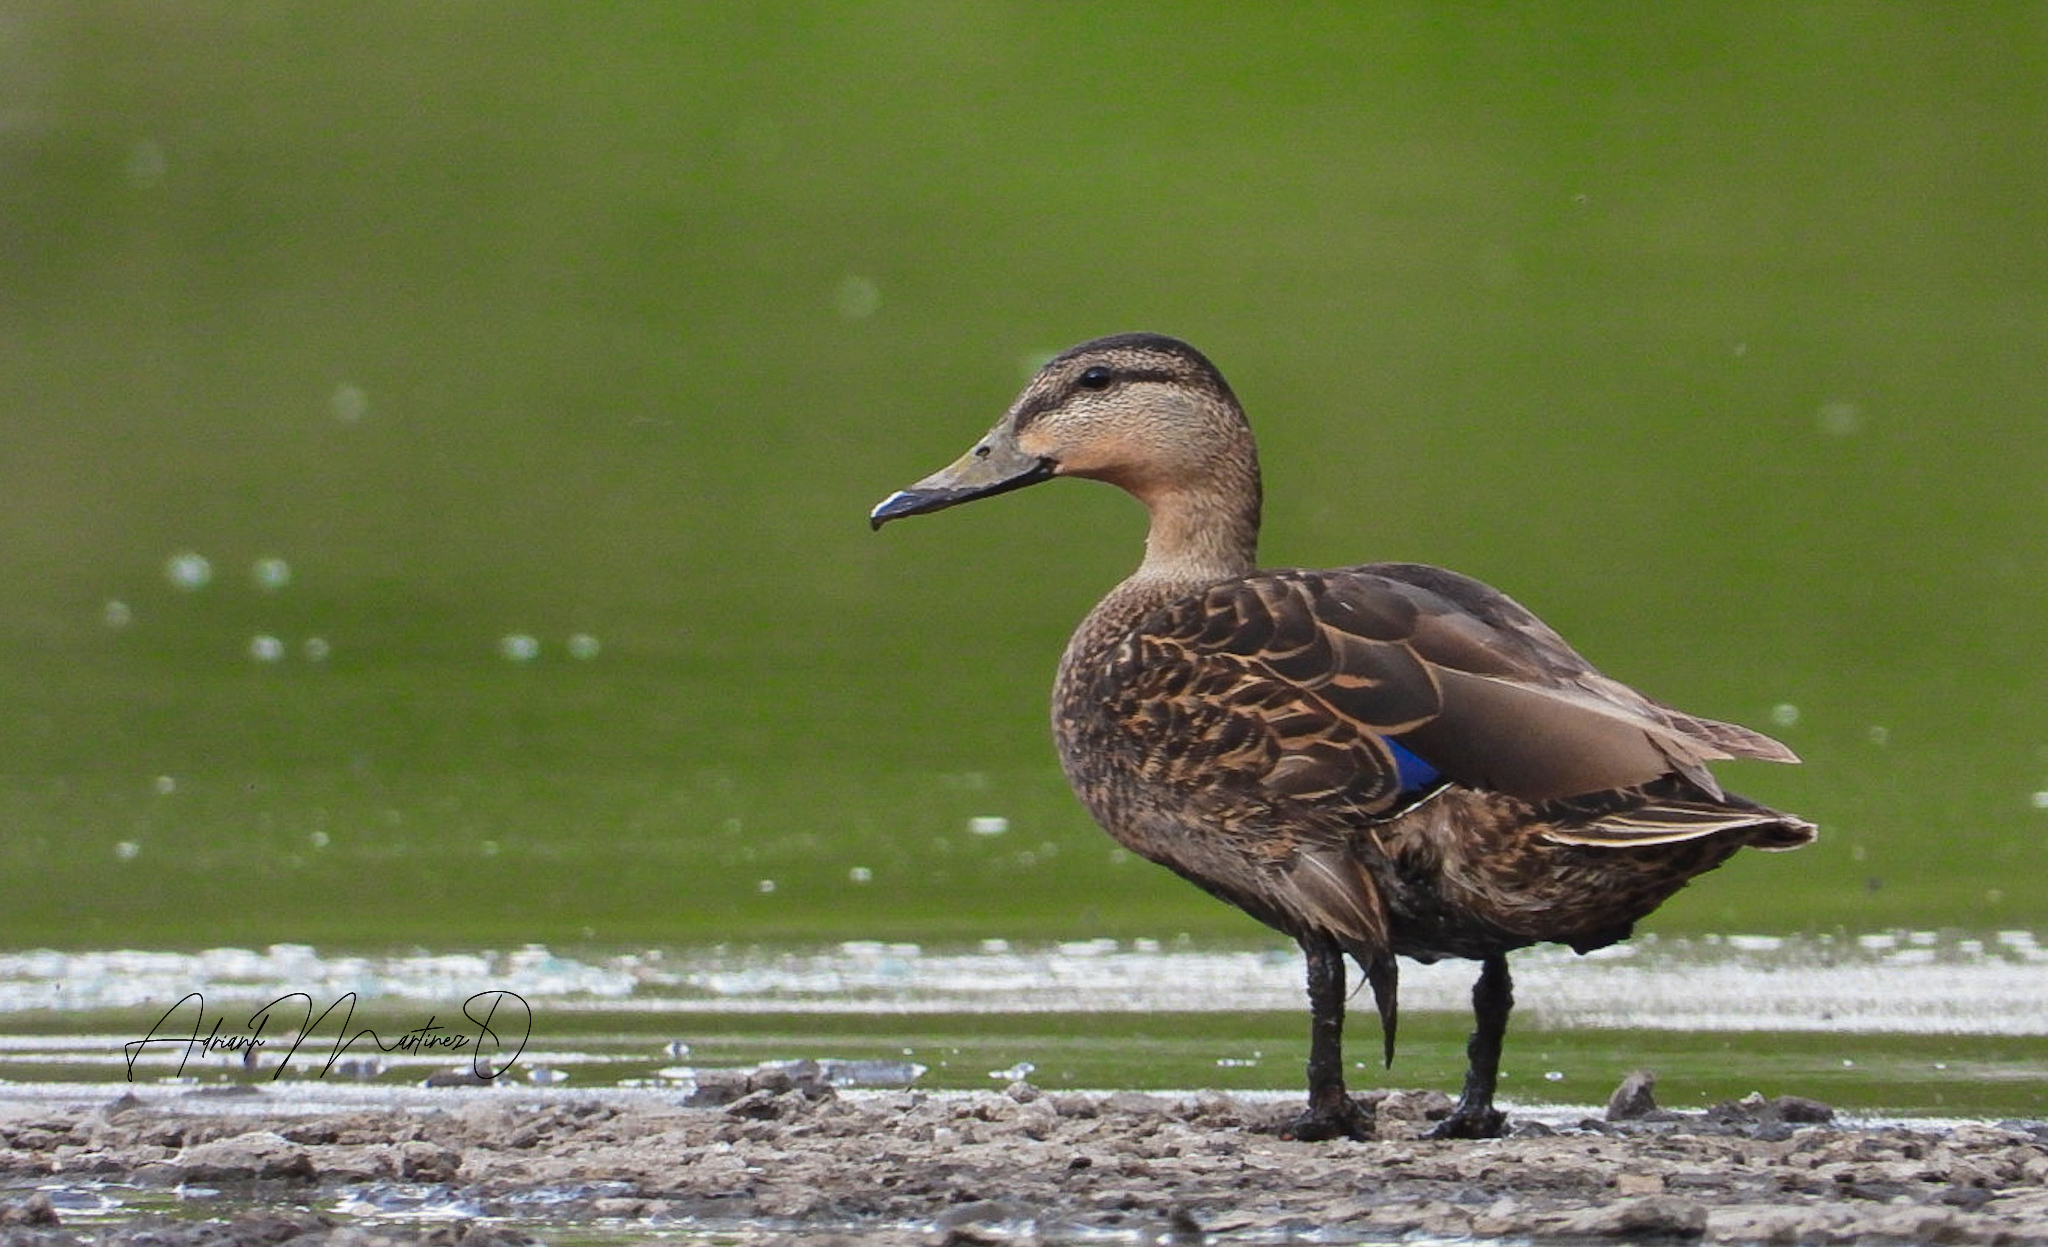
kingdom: Animalia
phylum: Chordata
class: Aves
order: Anseriformes
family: Anatidae
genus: Anas
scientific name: Anas diazi
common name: Mexican duck
